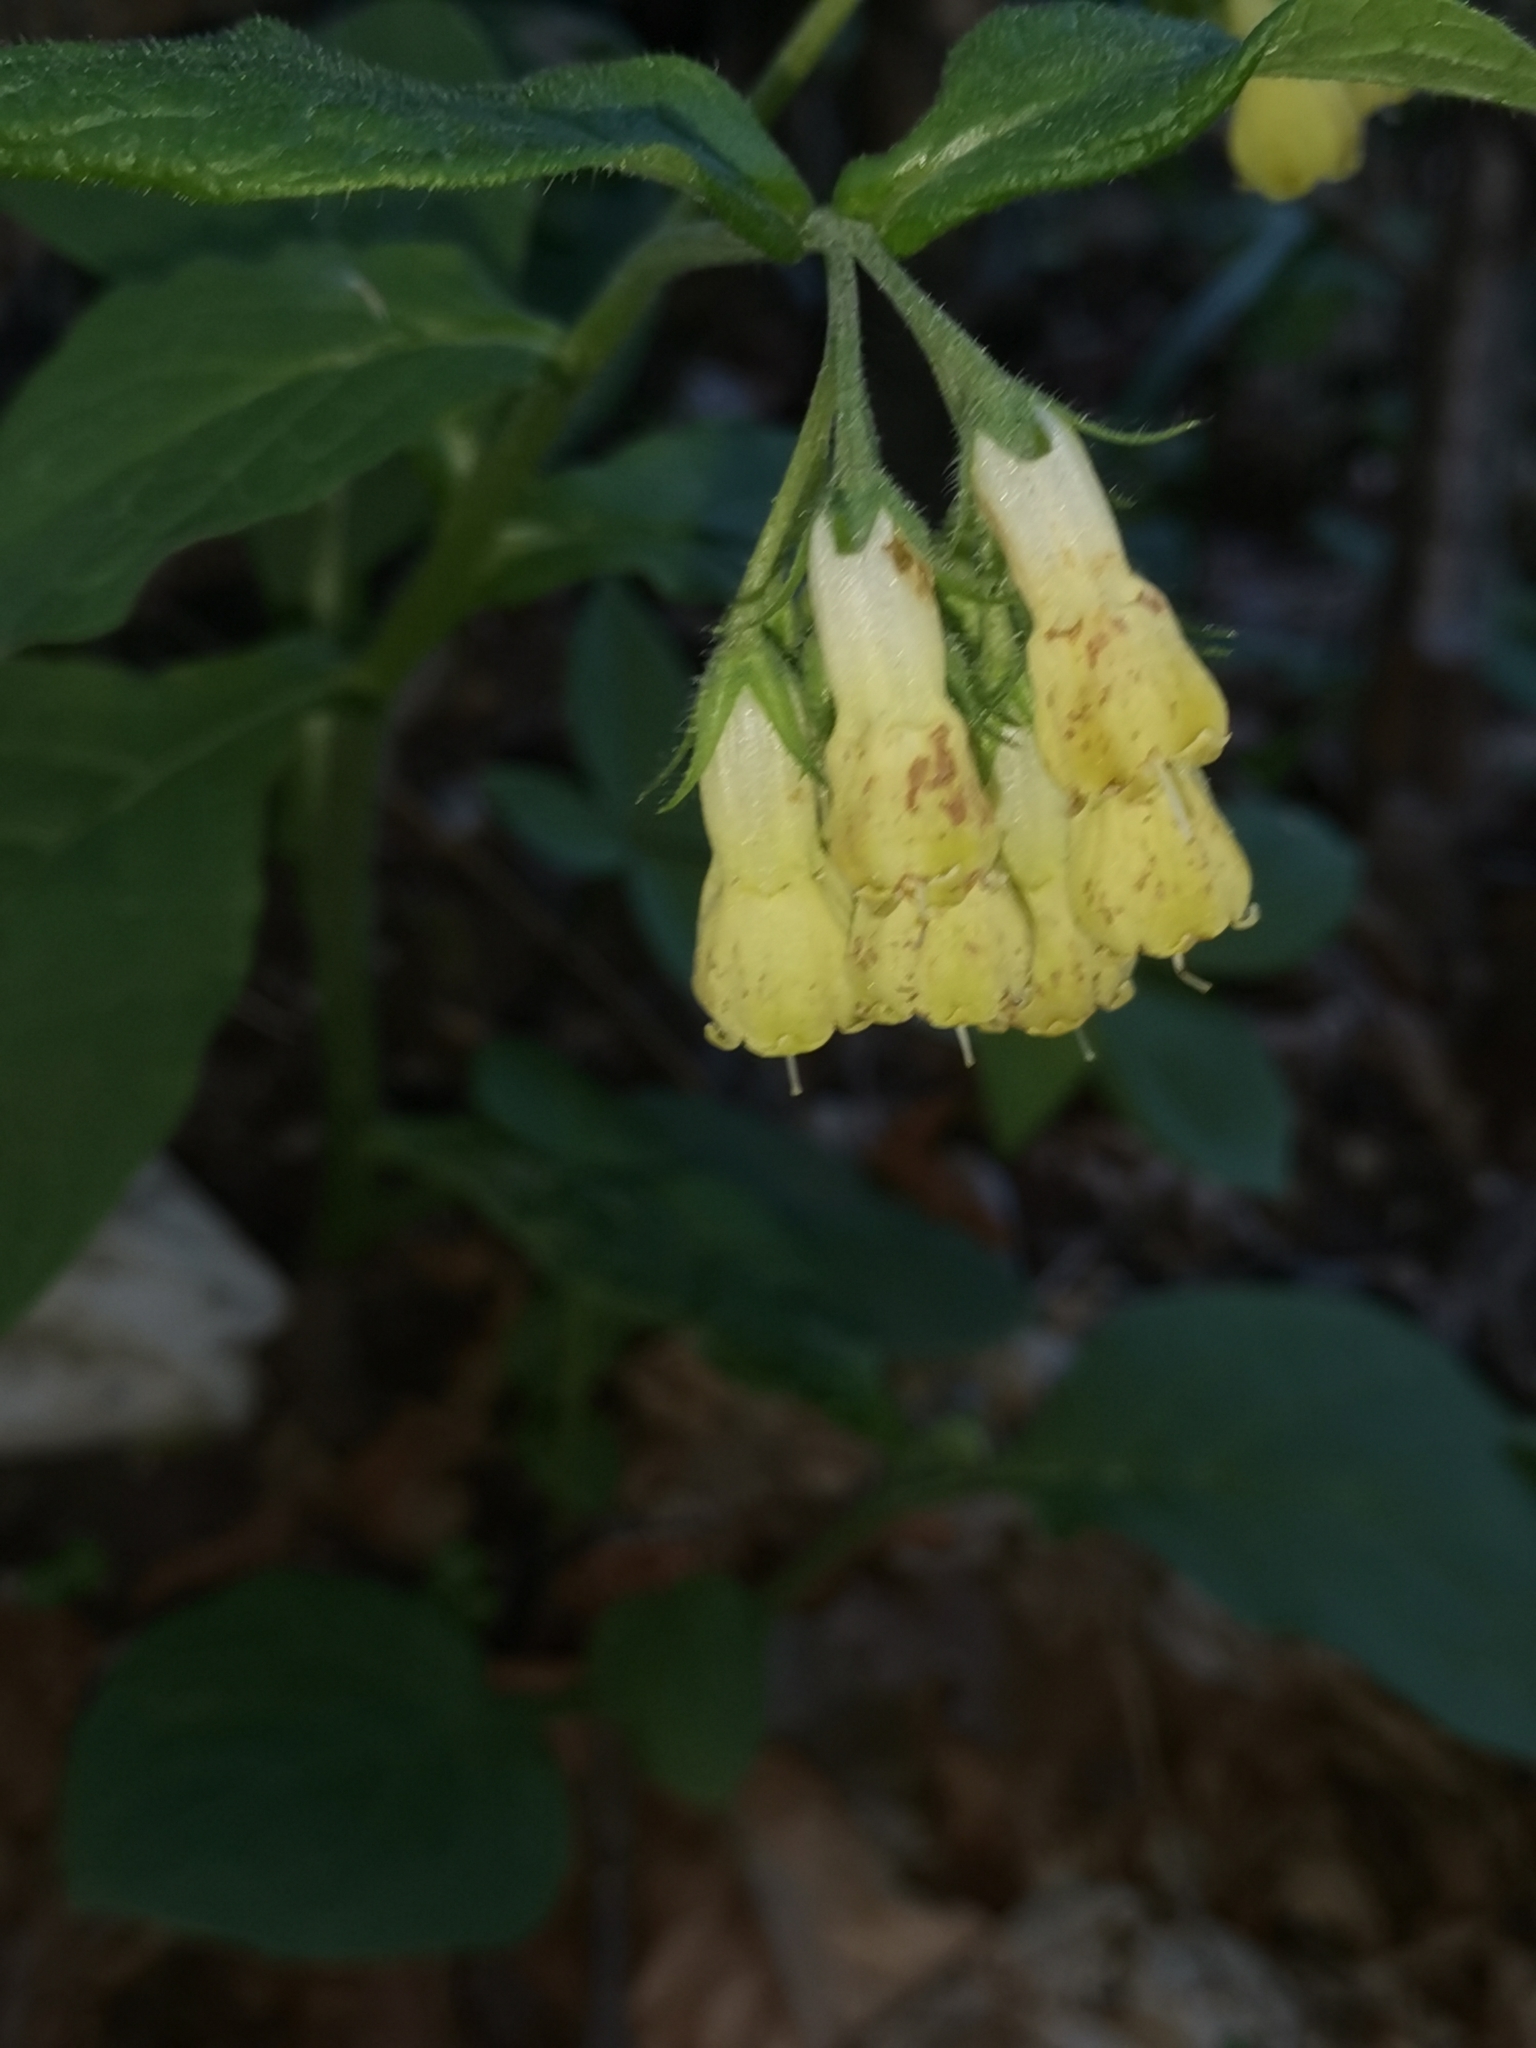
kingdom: Plantae
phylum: Tracheophyta
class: Magnoliopsida
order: Boraginales
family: Boraginaceae
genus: Symphytum
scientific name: Symphytum tuberosum
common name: Tuberous comfrey
